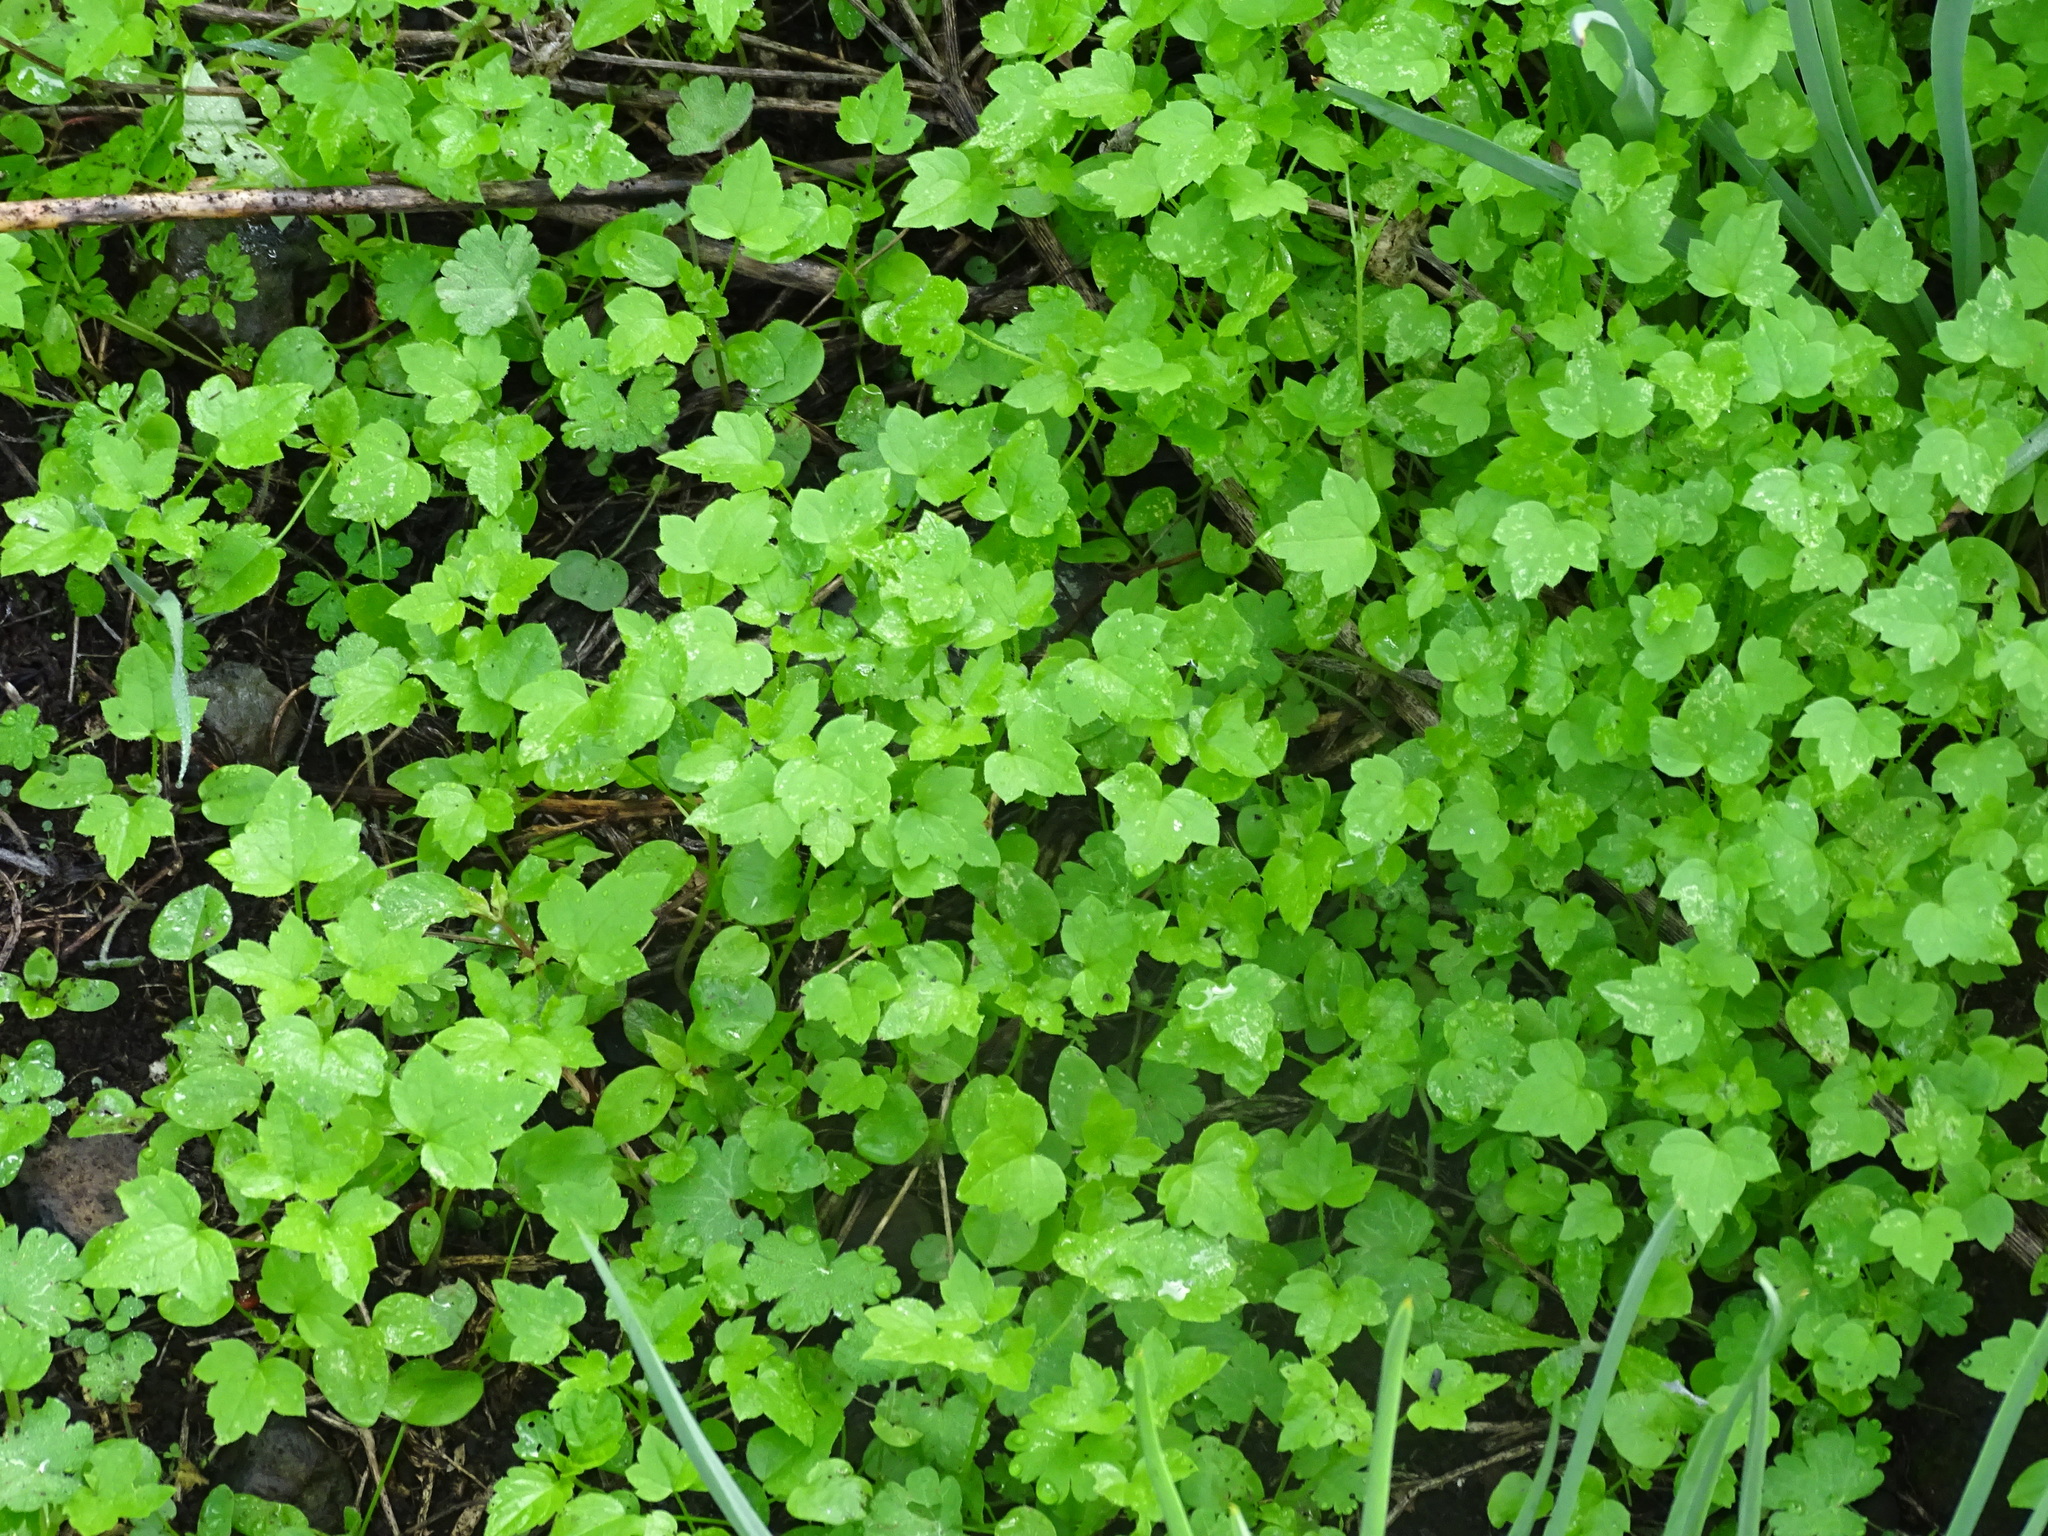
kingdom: Plantae
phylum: Tracheophyta
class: Magnoliopsida
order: Apiales
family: Apiaceae
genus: Drusa
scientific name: Drusa glandulosa
